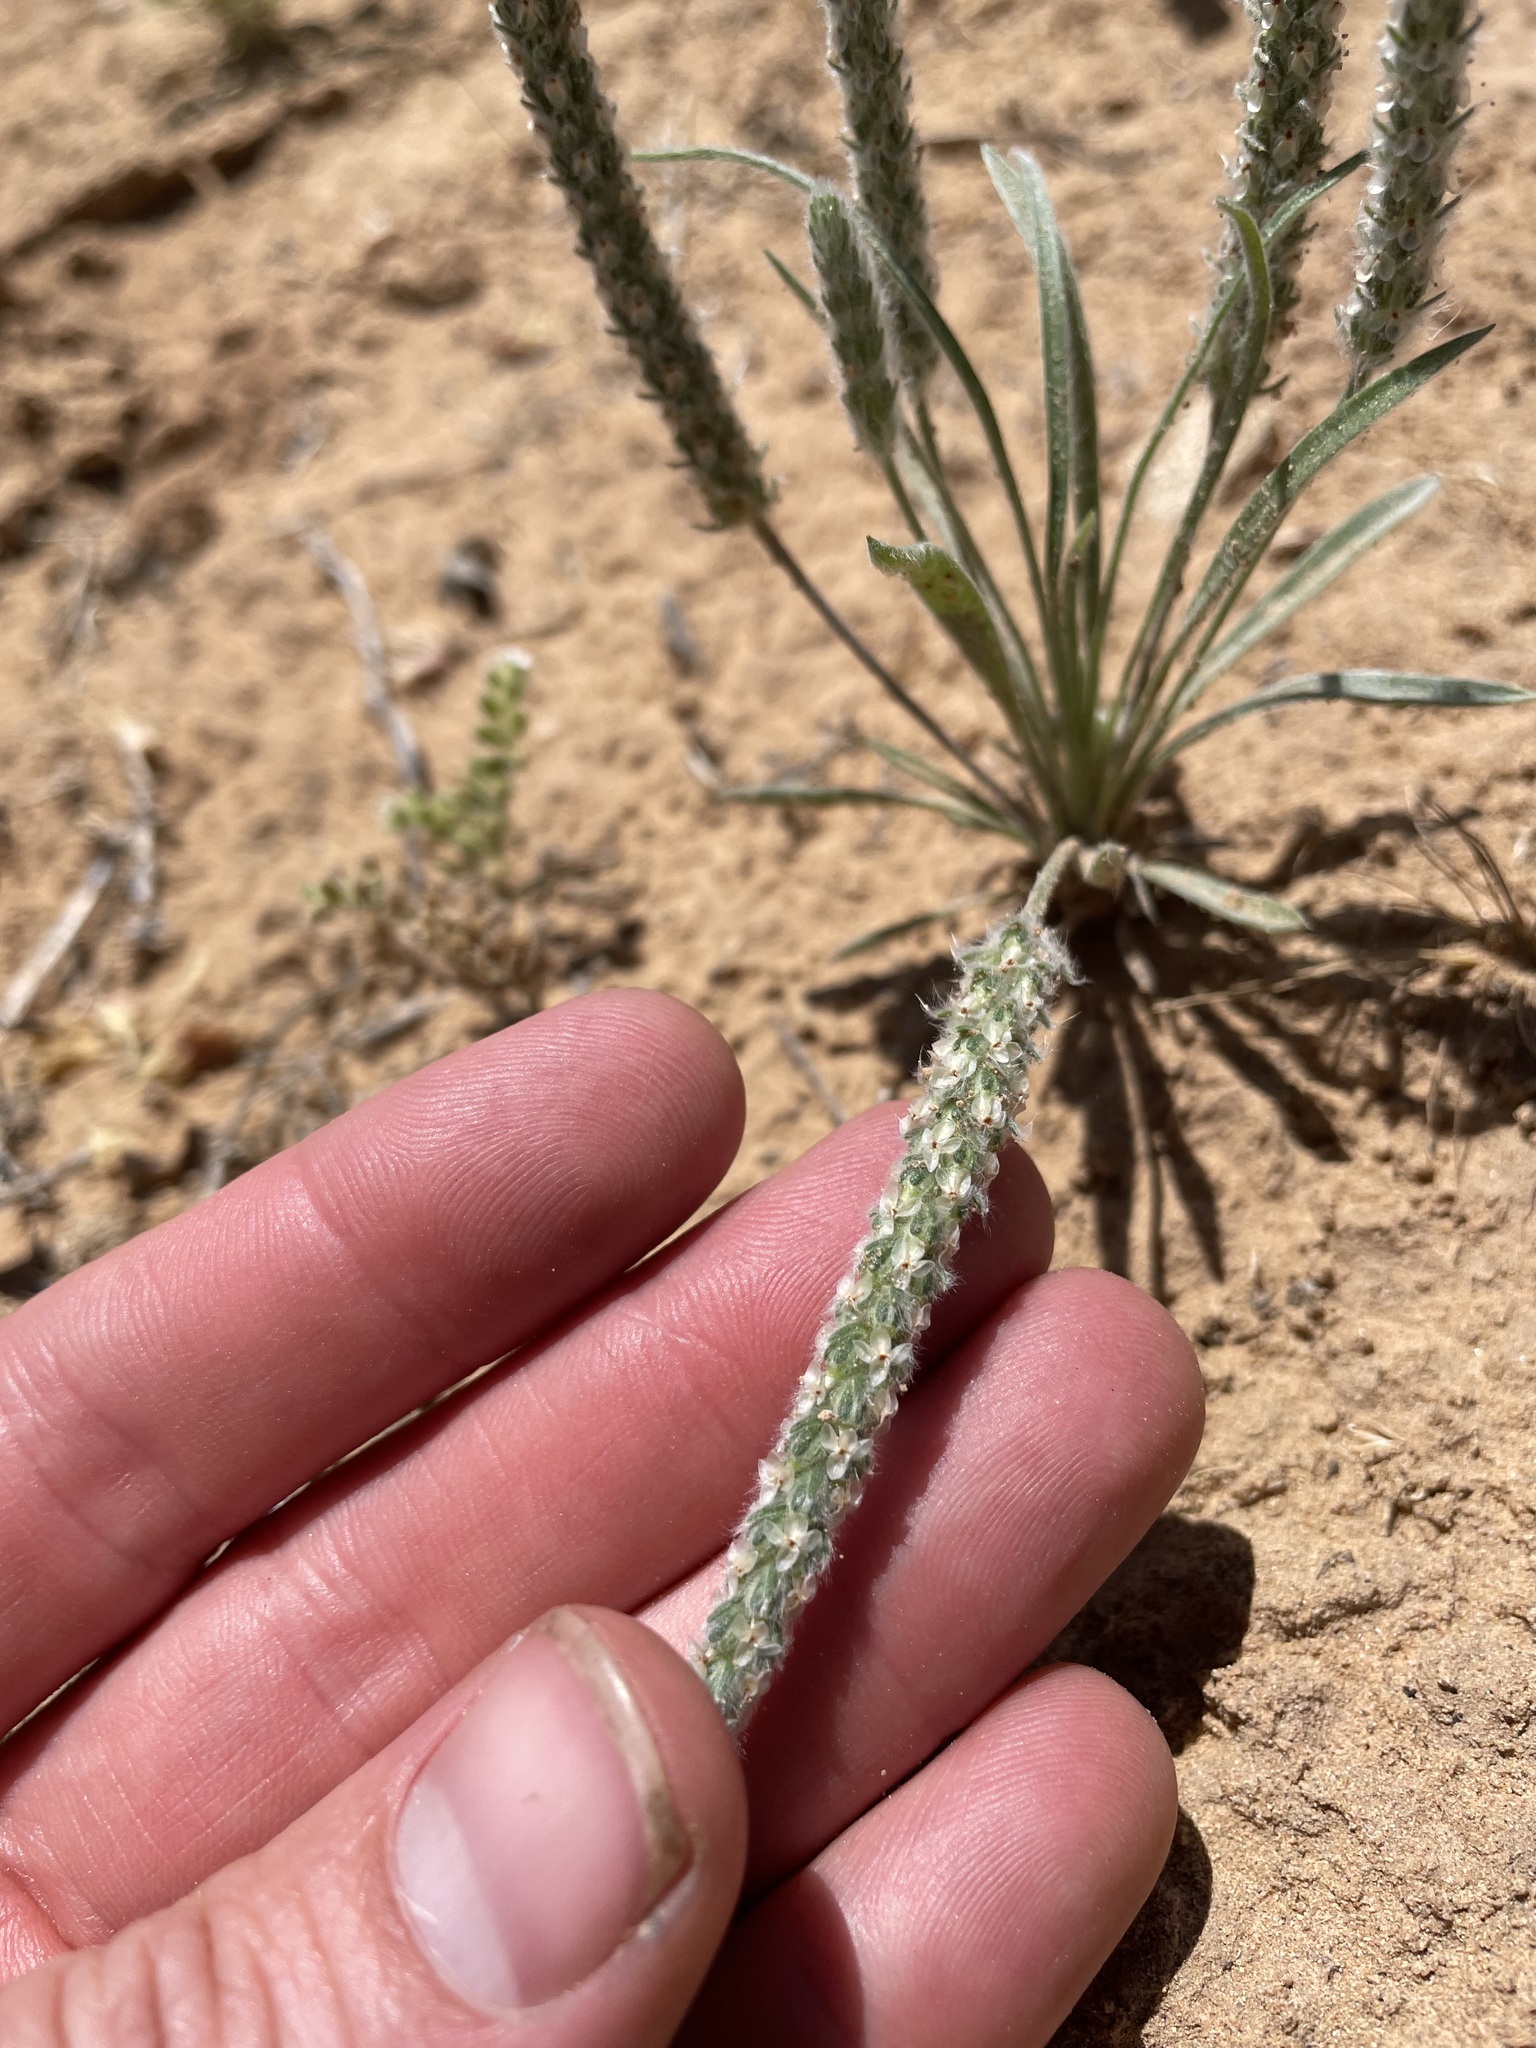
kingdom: Plantae
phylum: Tracheophyta
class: Magnoliopsida
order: Lamiales
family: Plantaginaceae
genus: Plantago
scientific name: Plantago patagonica
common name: Patagonia indian-wheat
